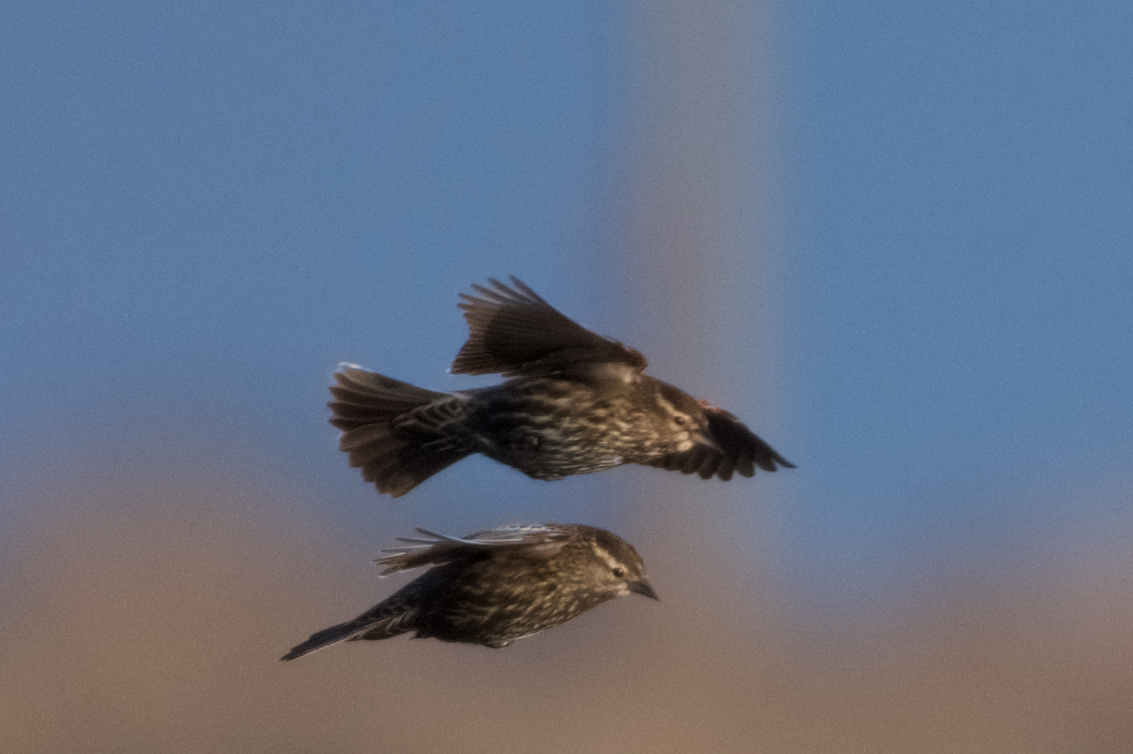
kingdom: Animalia
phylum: Chordata
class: Aves
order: Passeriformes
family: Icteridae
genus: Agelaius
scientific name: Agelaius phoeniceus
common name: Red-winged blackbird
